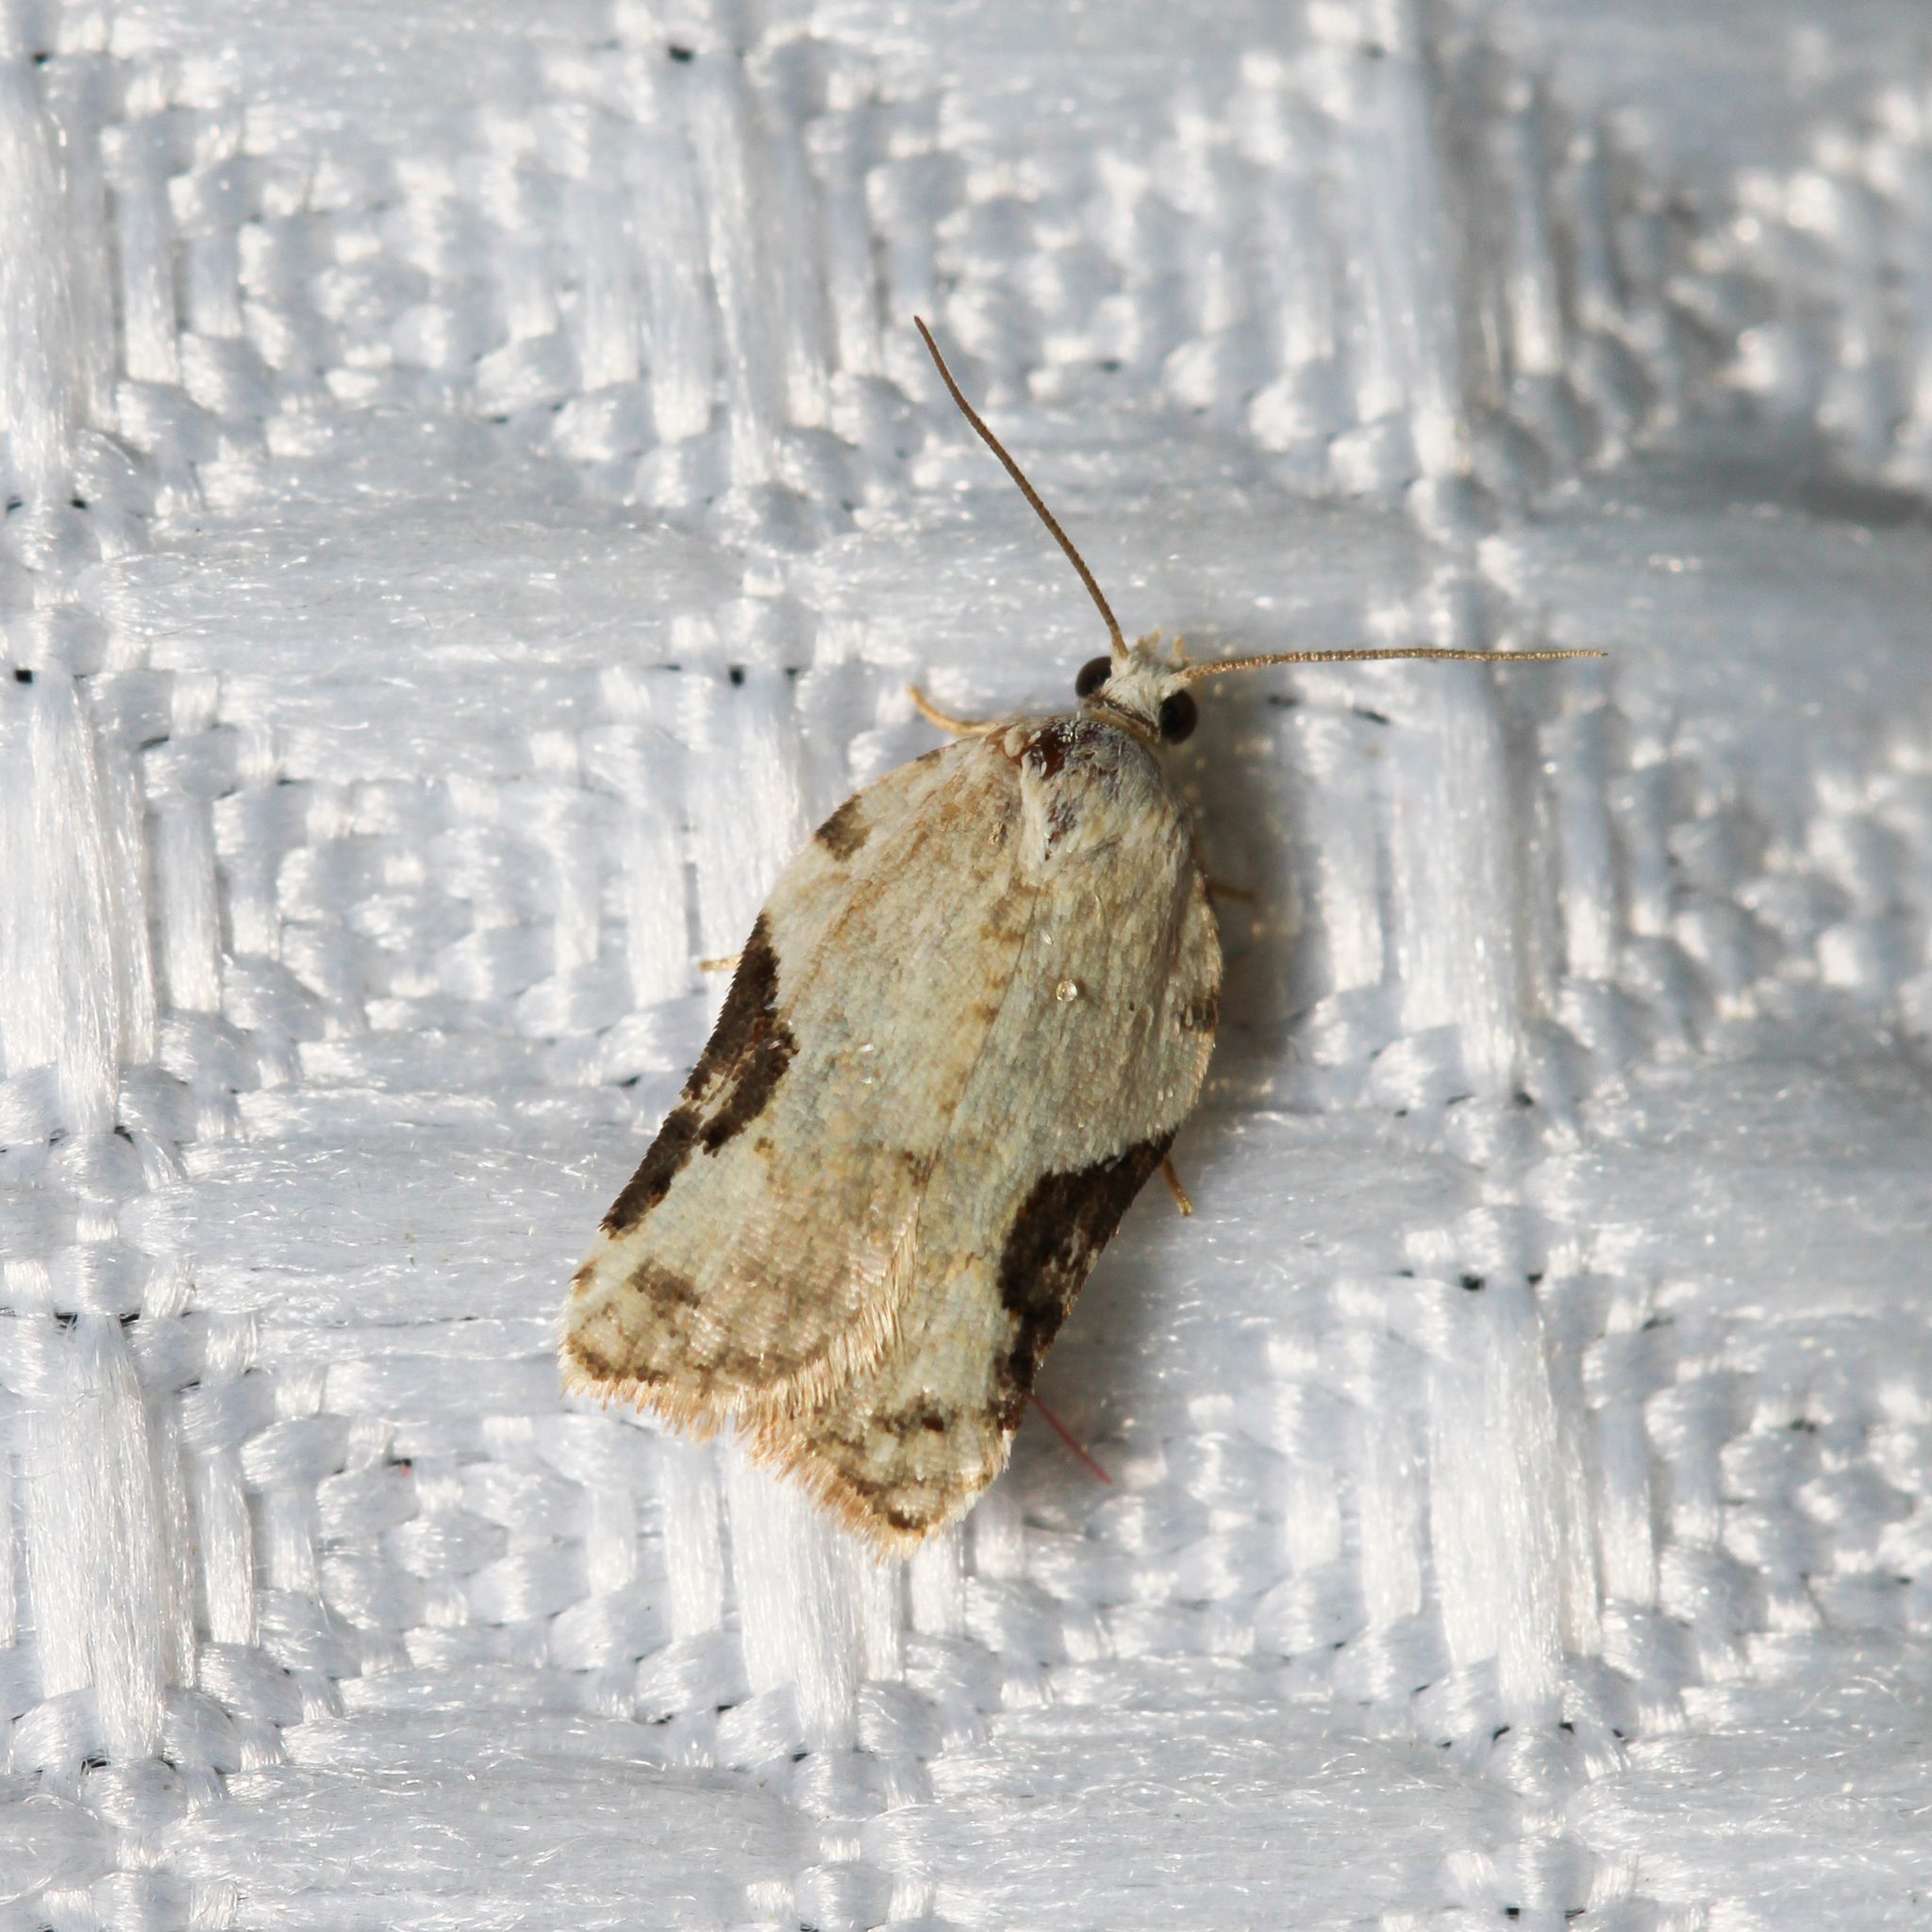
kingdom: Animalia
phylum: Arthropoda
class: Insecta
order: Lepidoptera
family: Tortricidae
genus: Acleris
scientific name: Acleris subnivana
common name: Bent-winged acleris moth
